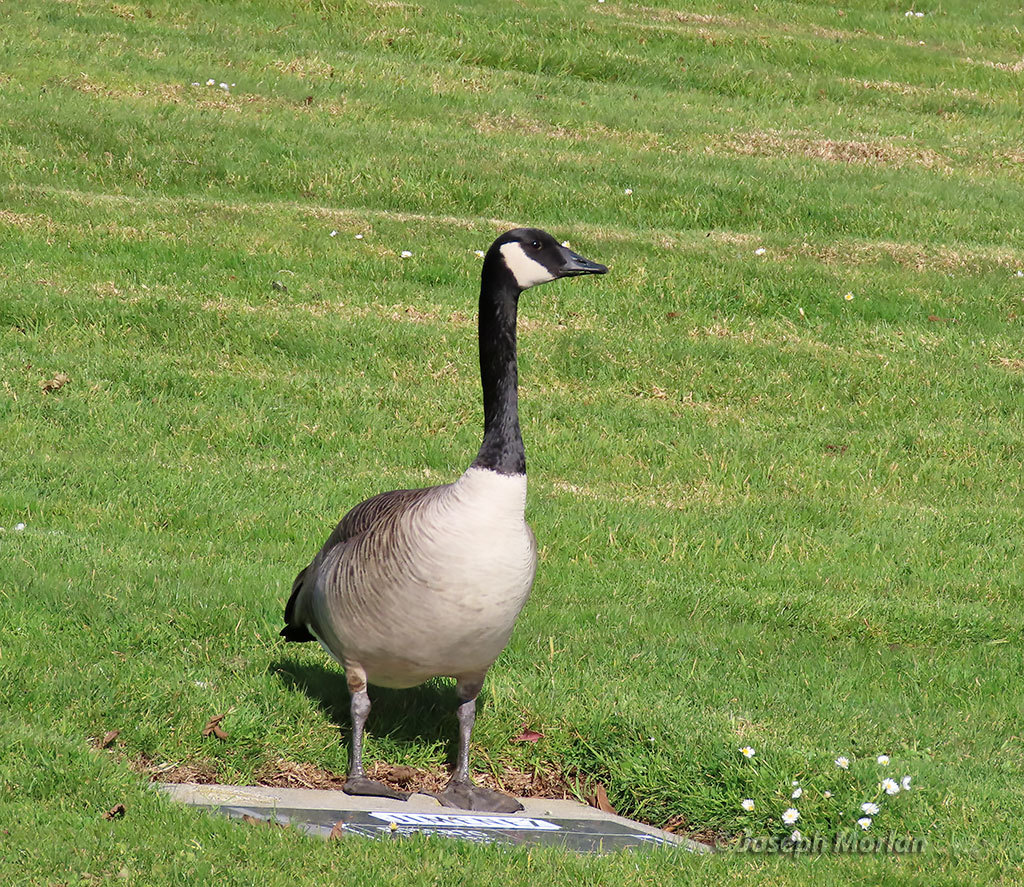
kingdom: Animalia
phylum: Chordata
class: Aves
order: Anseriformes
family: Anatidae
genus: Branta
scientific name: Branta canadensis
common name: Canada goose
